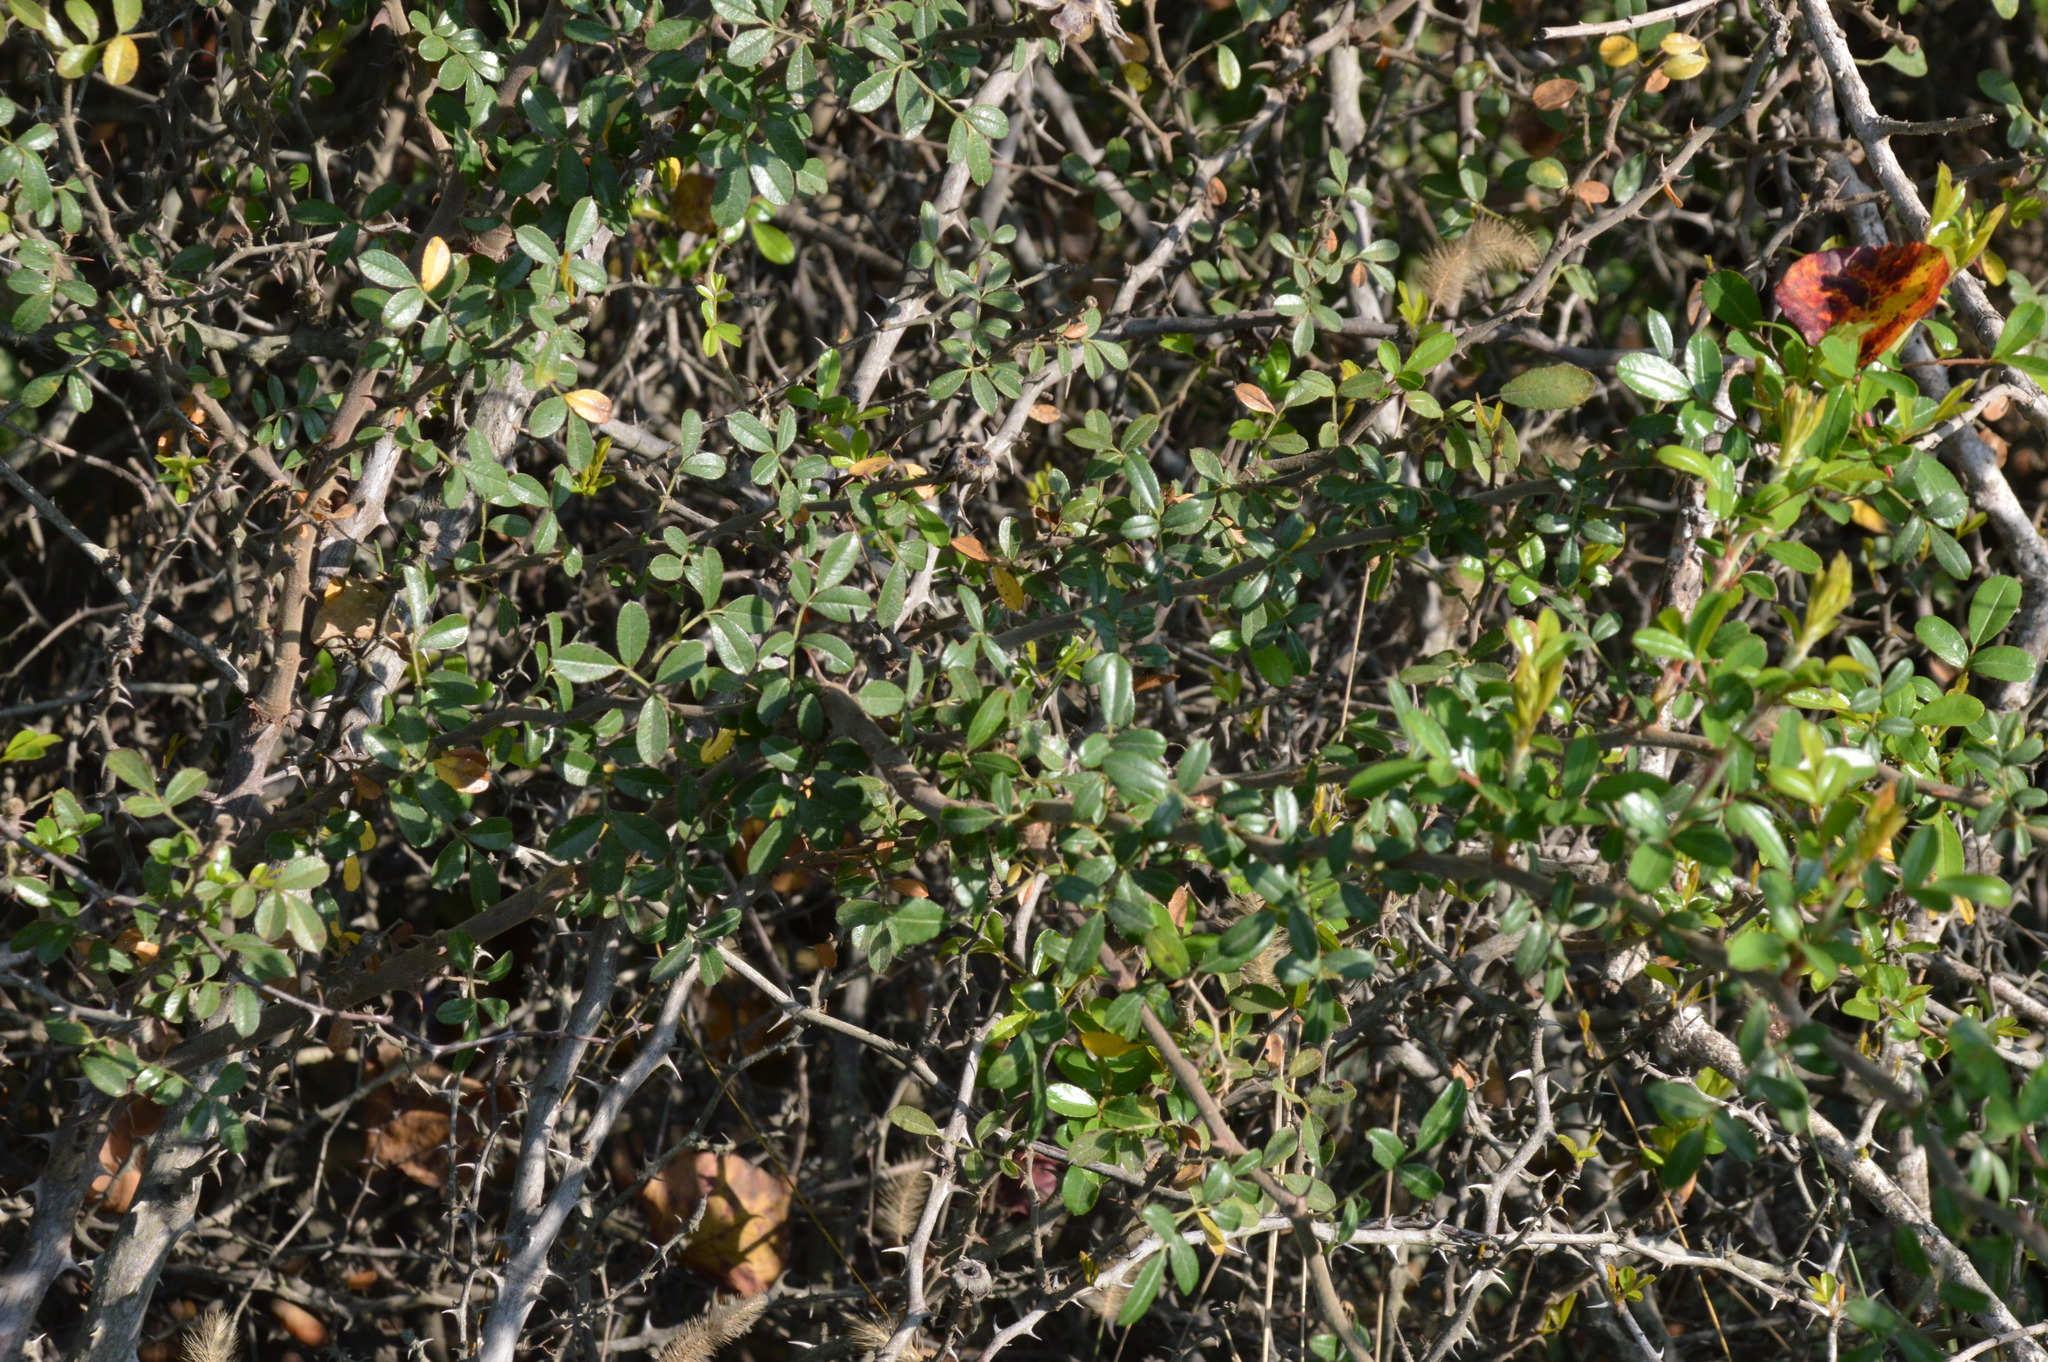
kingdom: Plantae
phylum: Tracheophyta
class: Magnoliopsida
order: Rosales
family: Rosaceae
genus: Rosa
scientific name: Rosa bracteata
